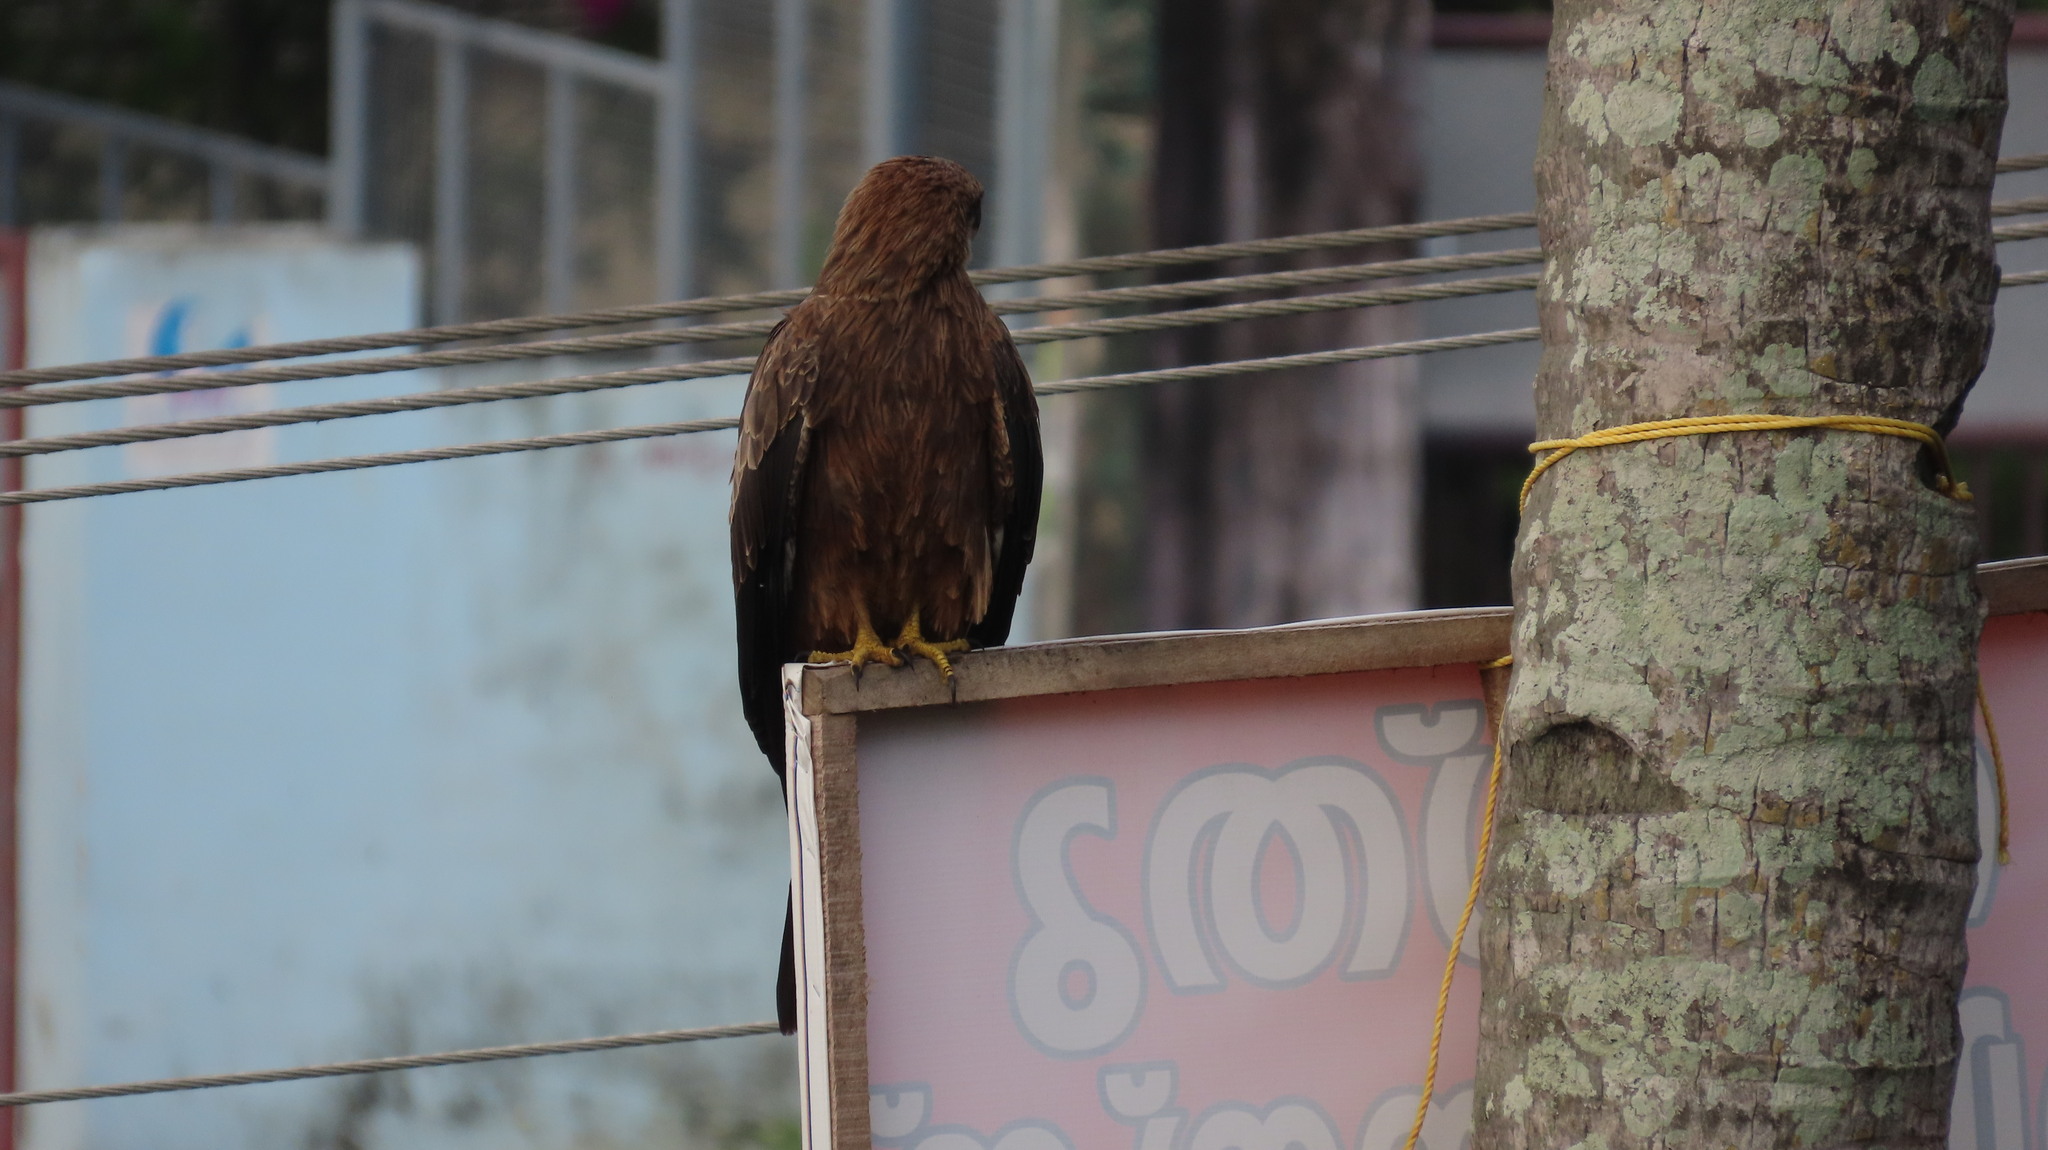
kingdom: Animalia
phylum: Chordata
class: Aves
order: Accipitriformes
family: Accipitridae
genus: Milvus
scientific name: Milvus migrans
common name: Black kite
